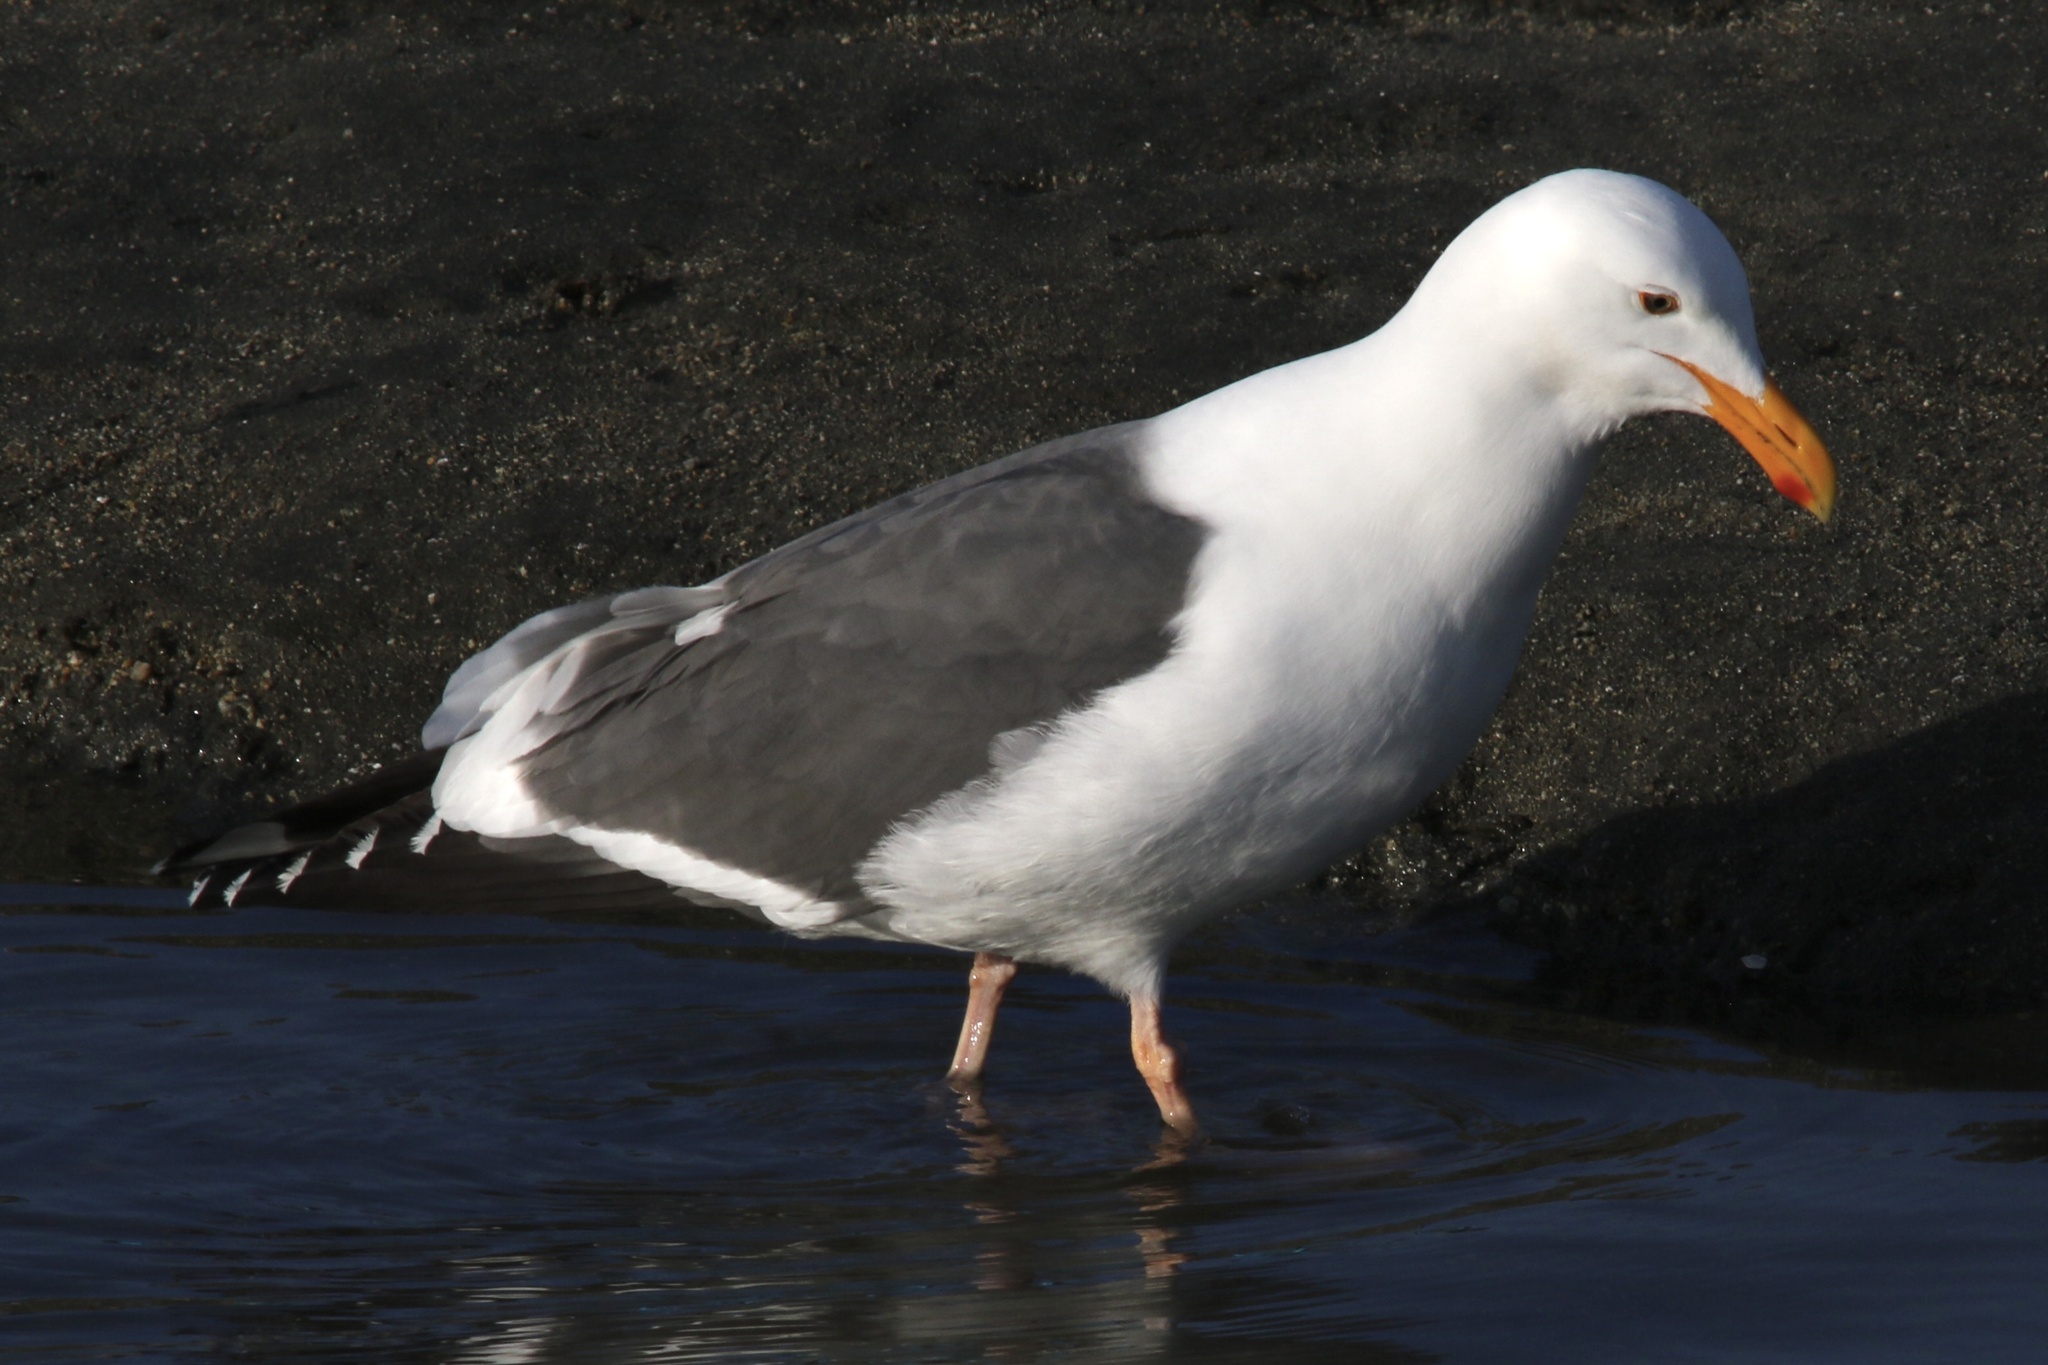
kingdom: Animalia
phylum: Chordata
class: Aves
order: Charadriiformes
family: Laridae
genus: Larus
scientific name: Larus occidentalis
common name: Western gull
